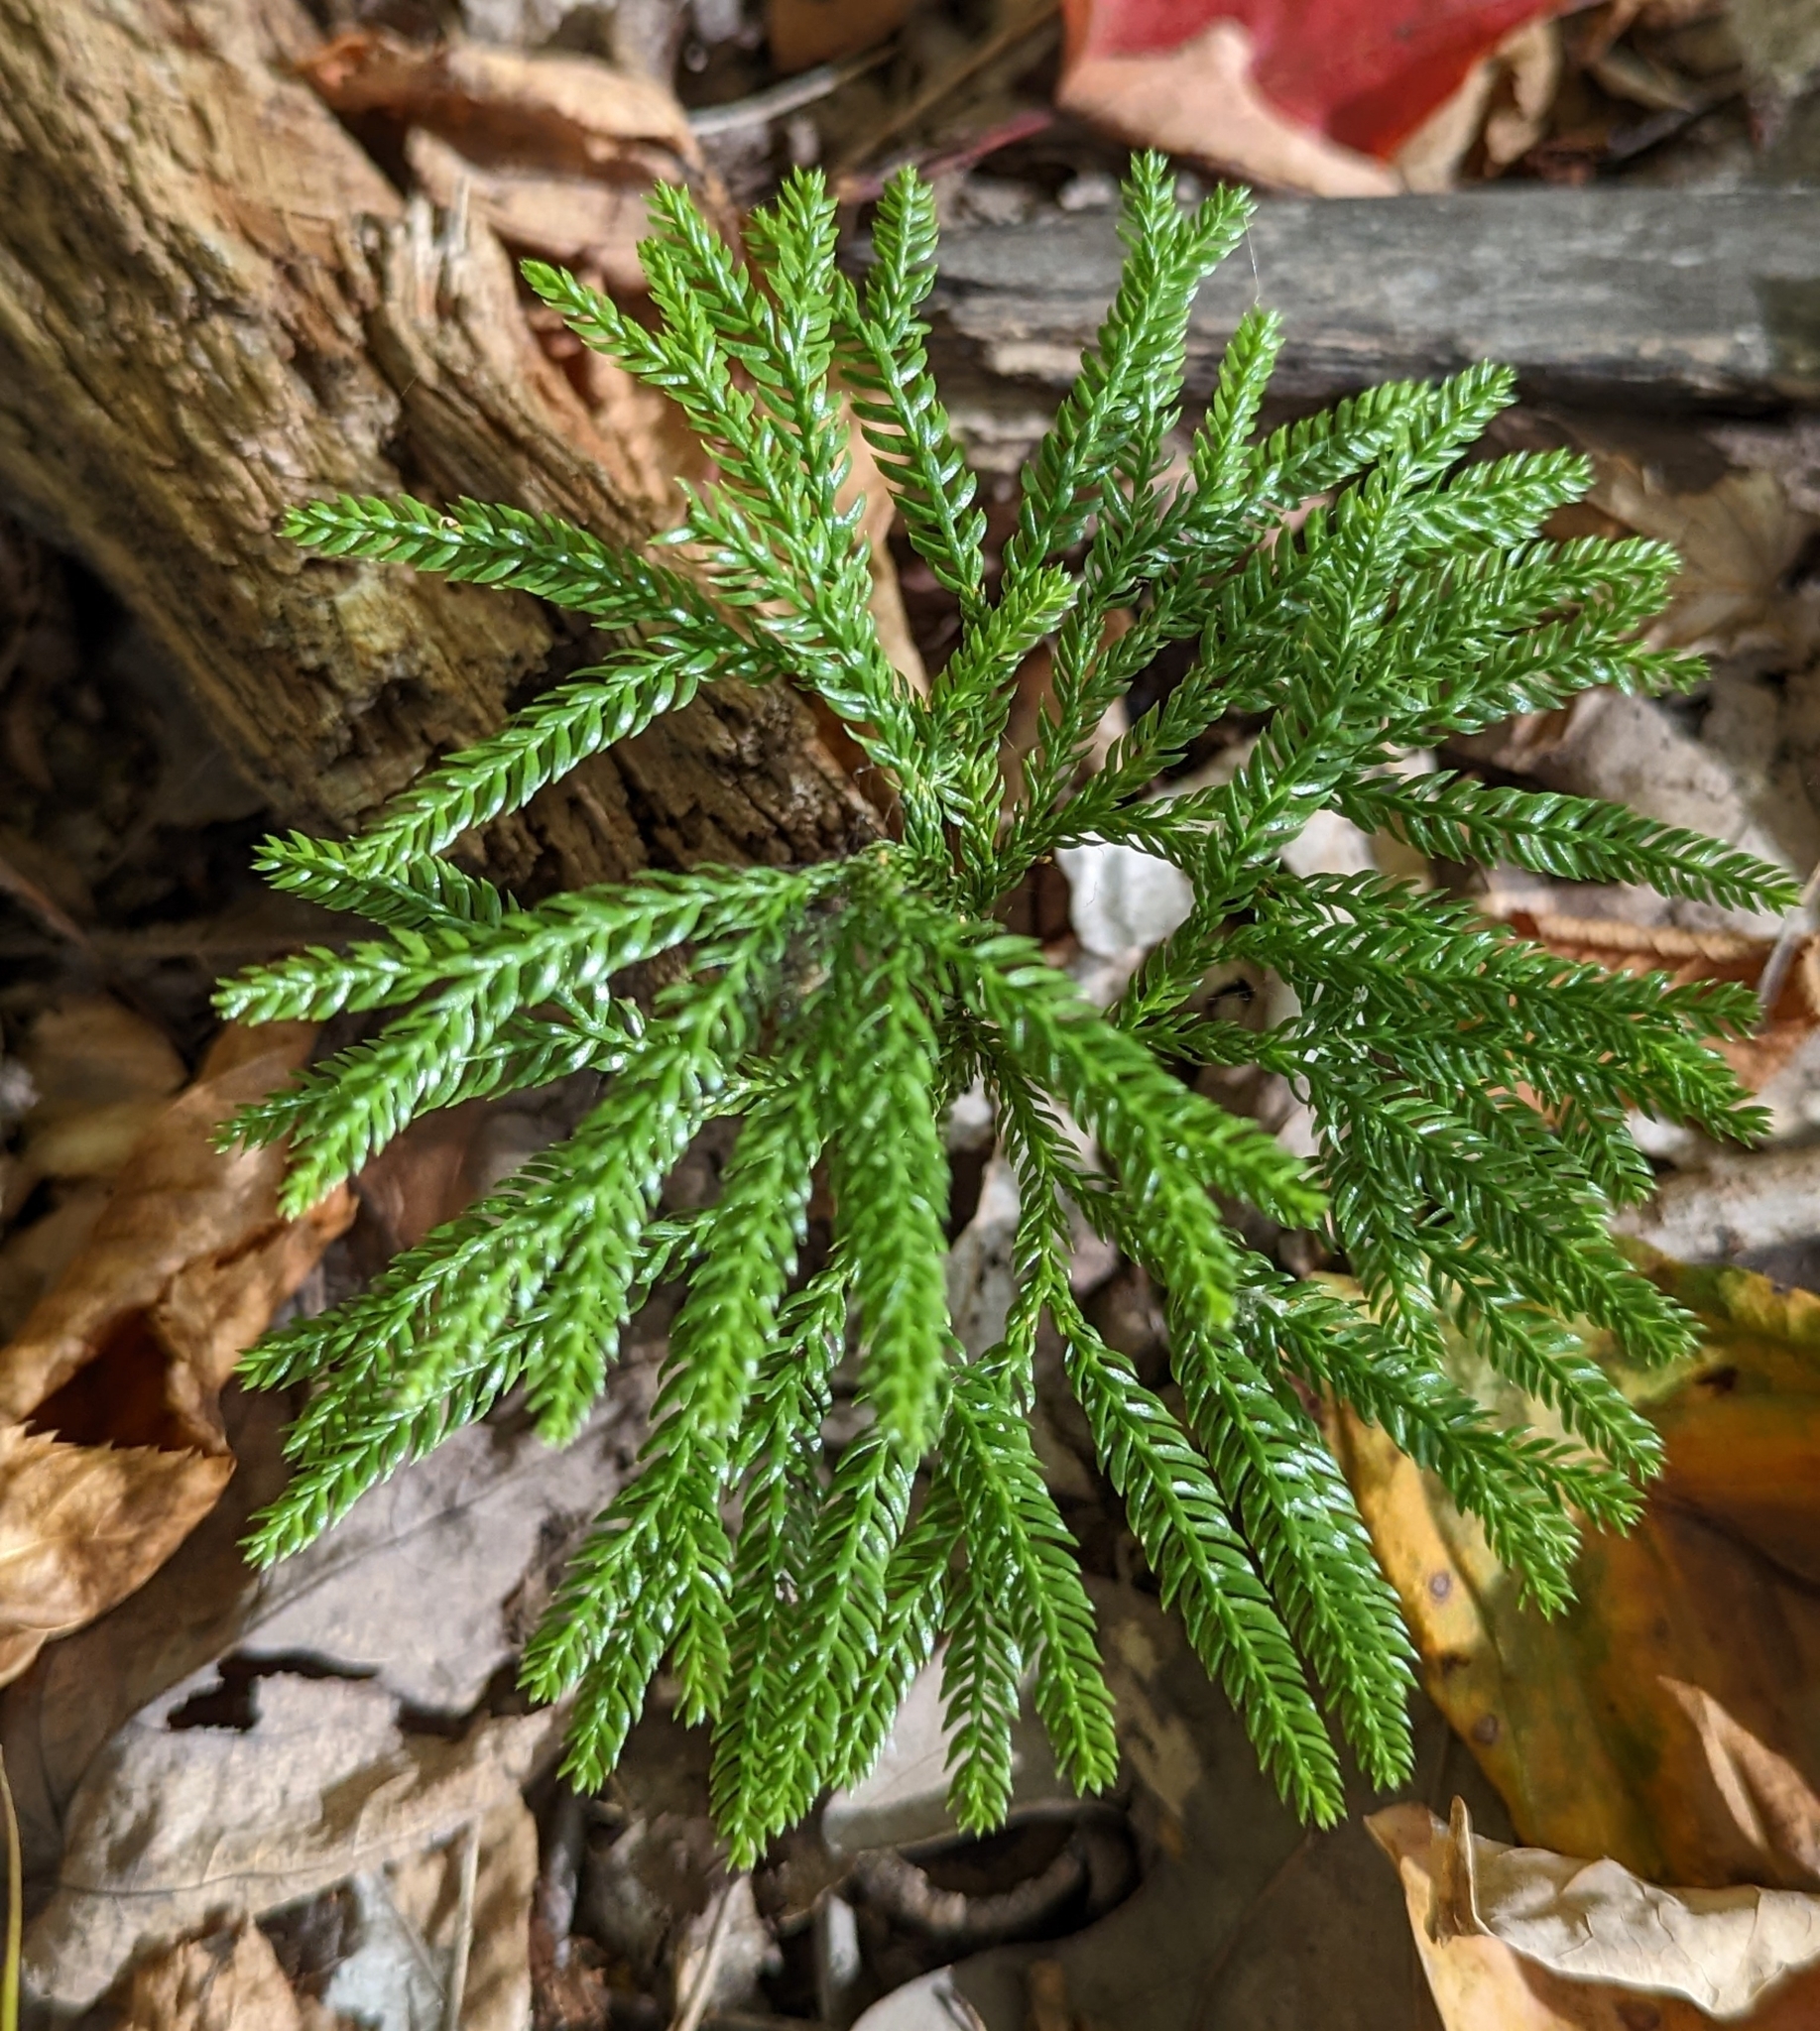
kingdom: Plantae
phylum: Tracheophyta
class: Lycopodiopsida
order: Lycopodiales
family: Lycopodiaceae
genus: Dendrolycopodium
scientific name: Dendrolycopodium obscurum
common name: Common ground-pine
